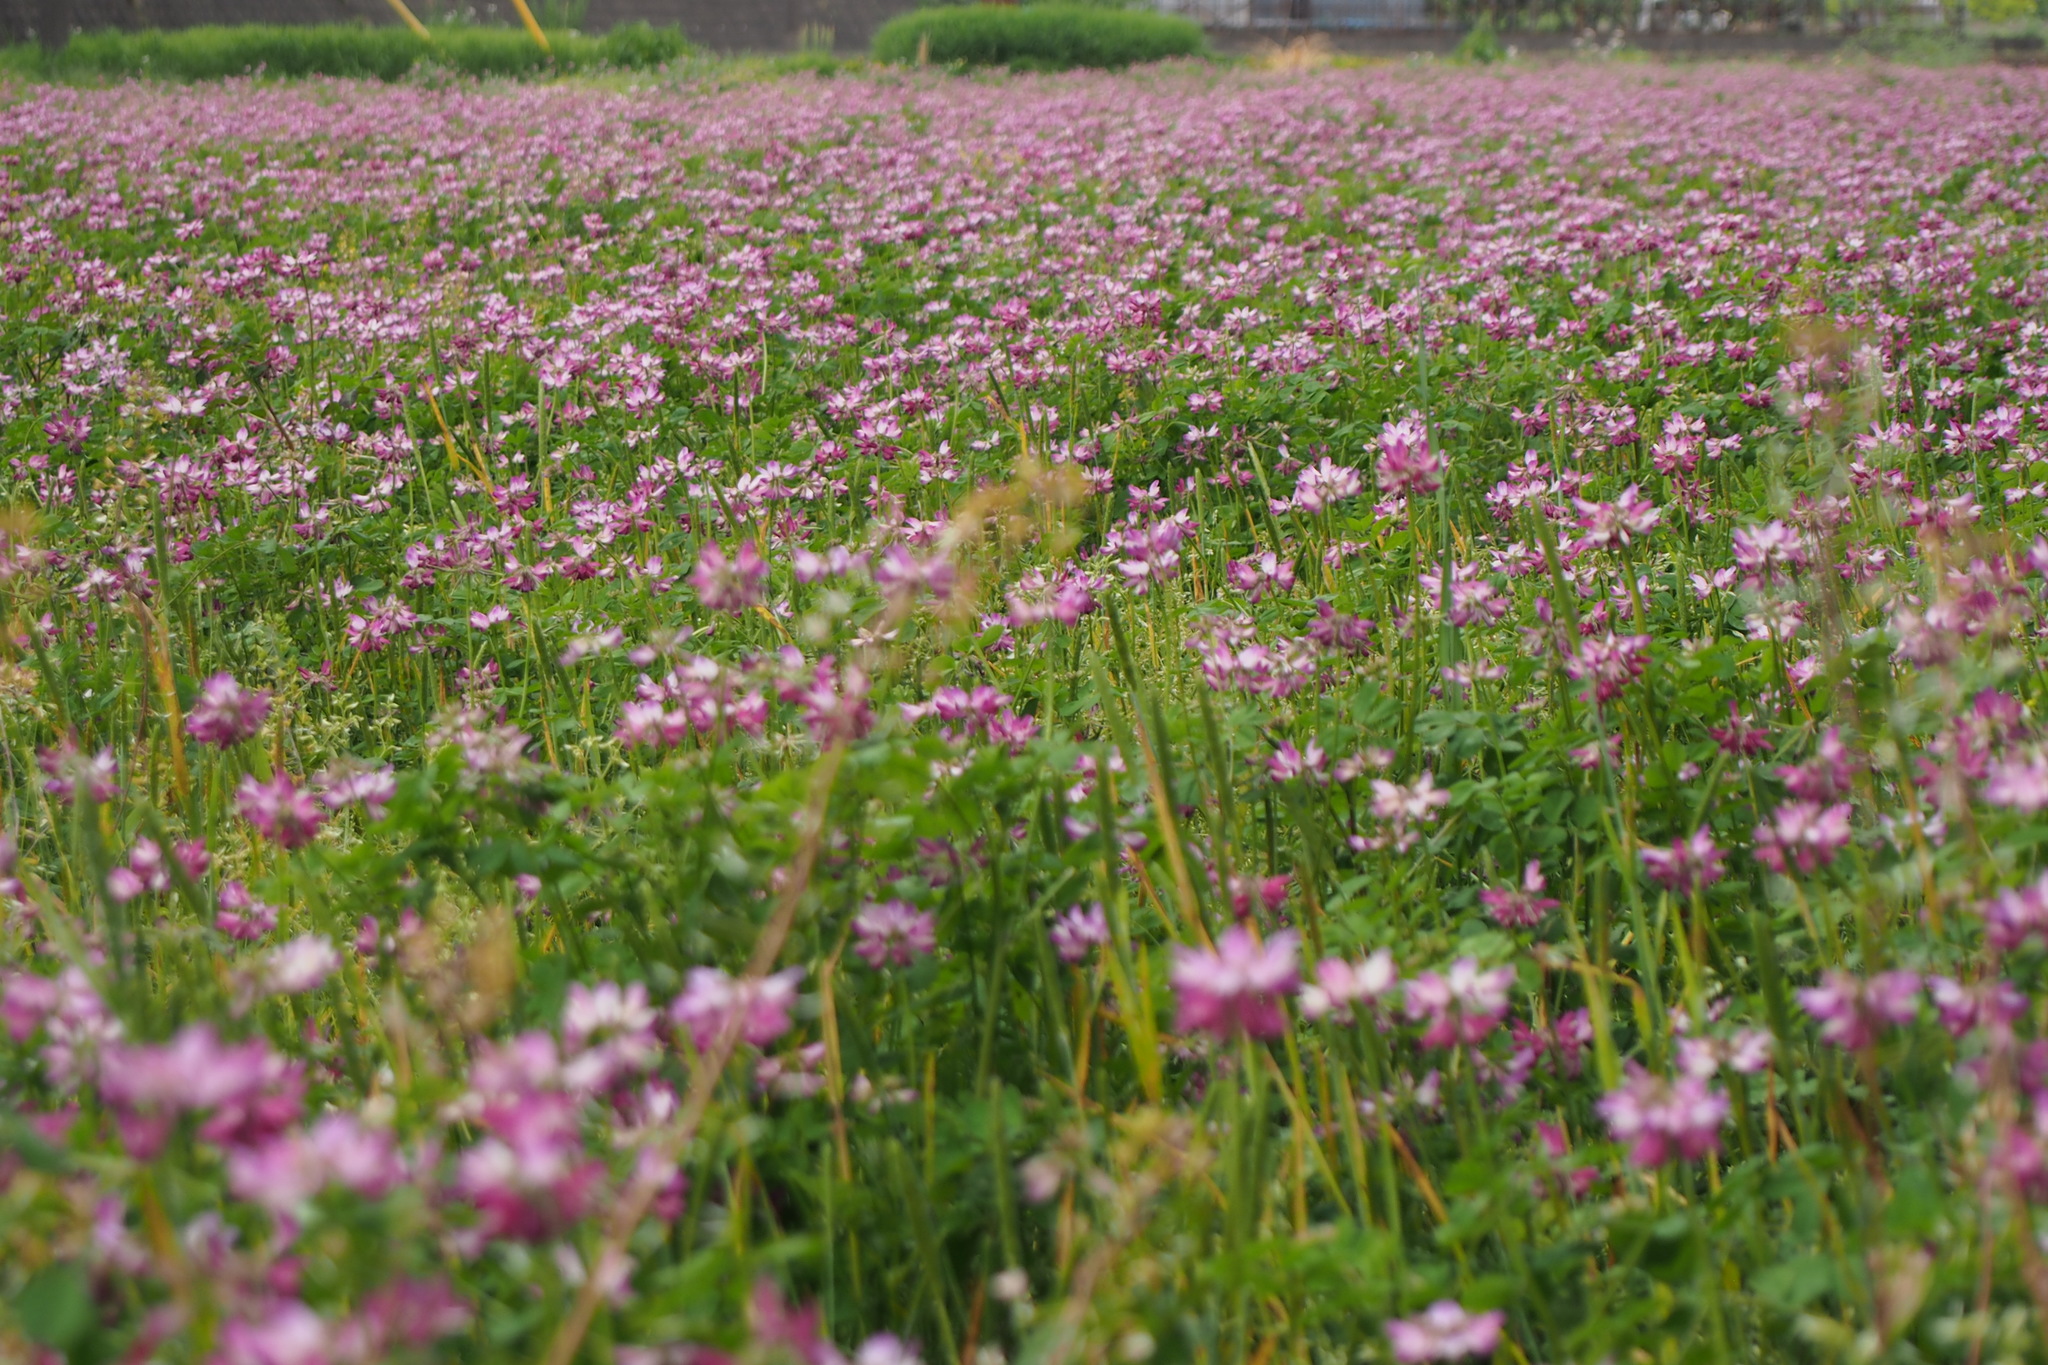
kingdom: Plantae
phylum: Tracheophyta
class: Magnoliopsida
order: Fabales
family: Fabaceae
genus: Astragalus
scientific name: Astragalus sinicus
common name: Chinese milk-vetch
